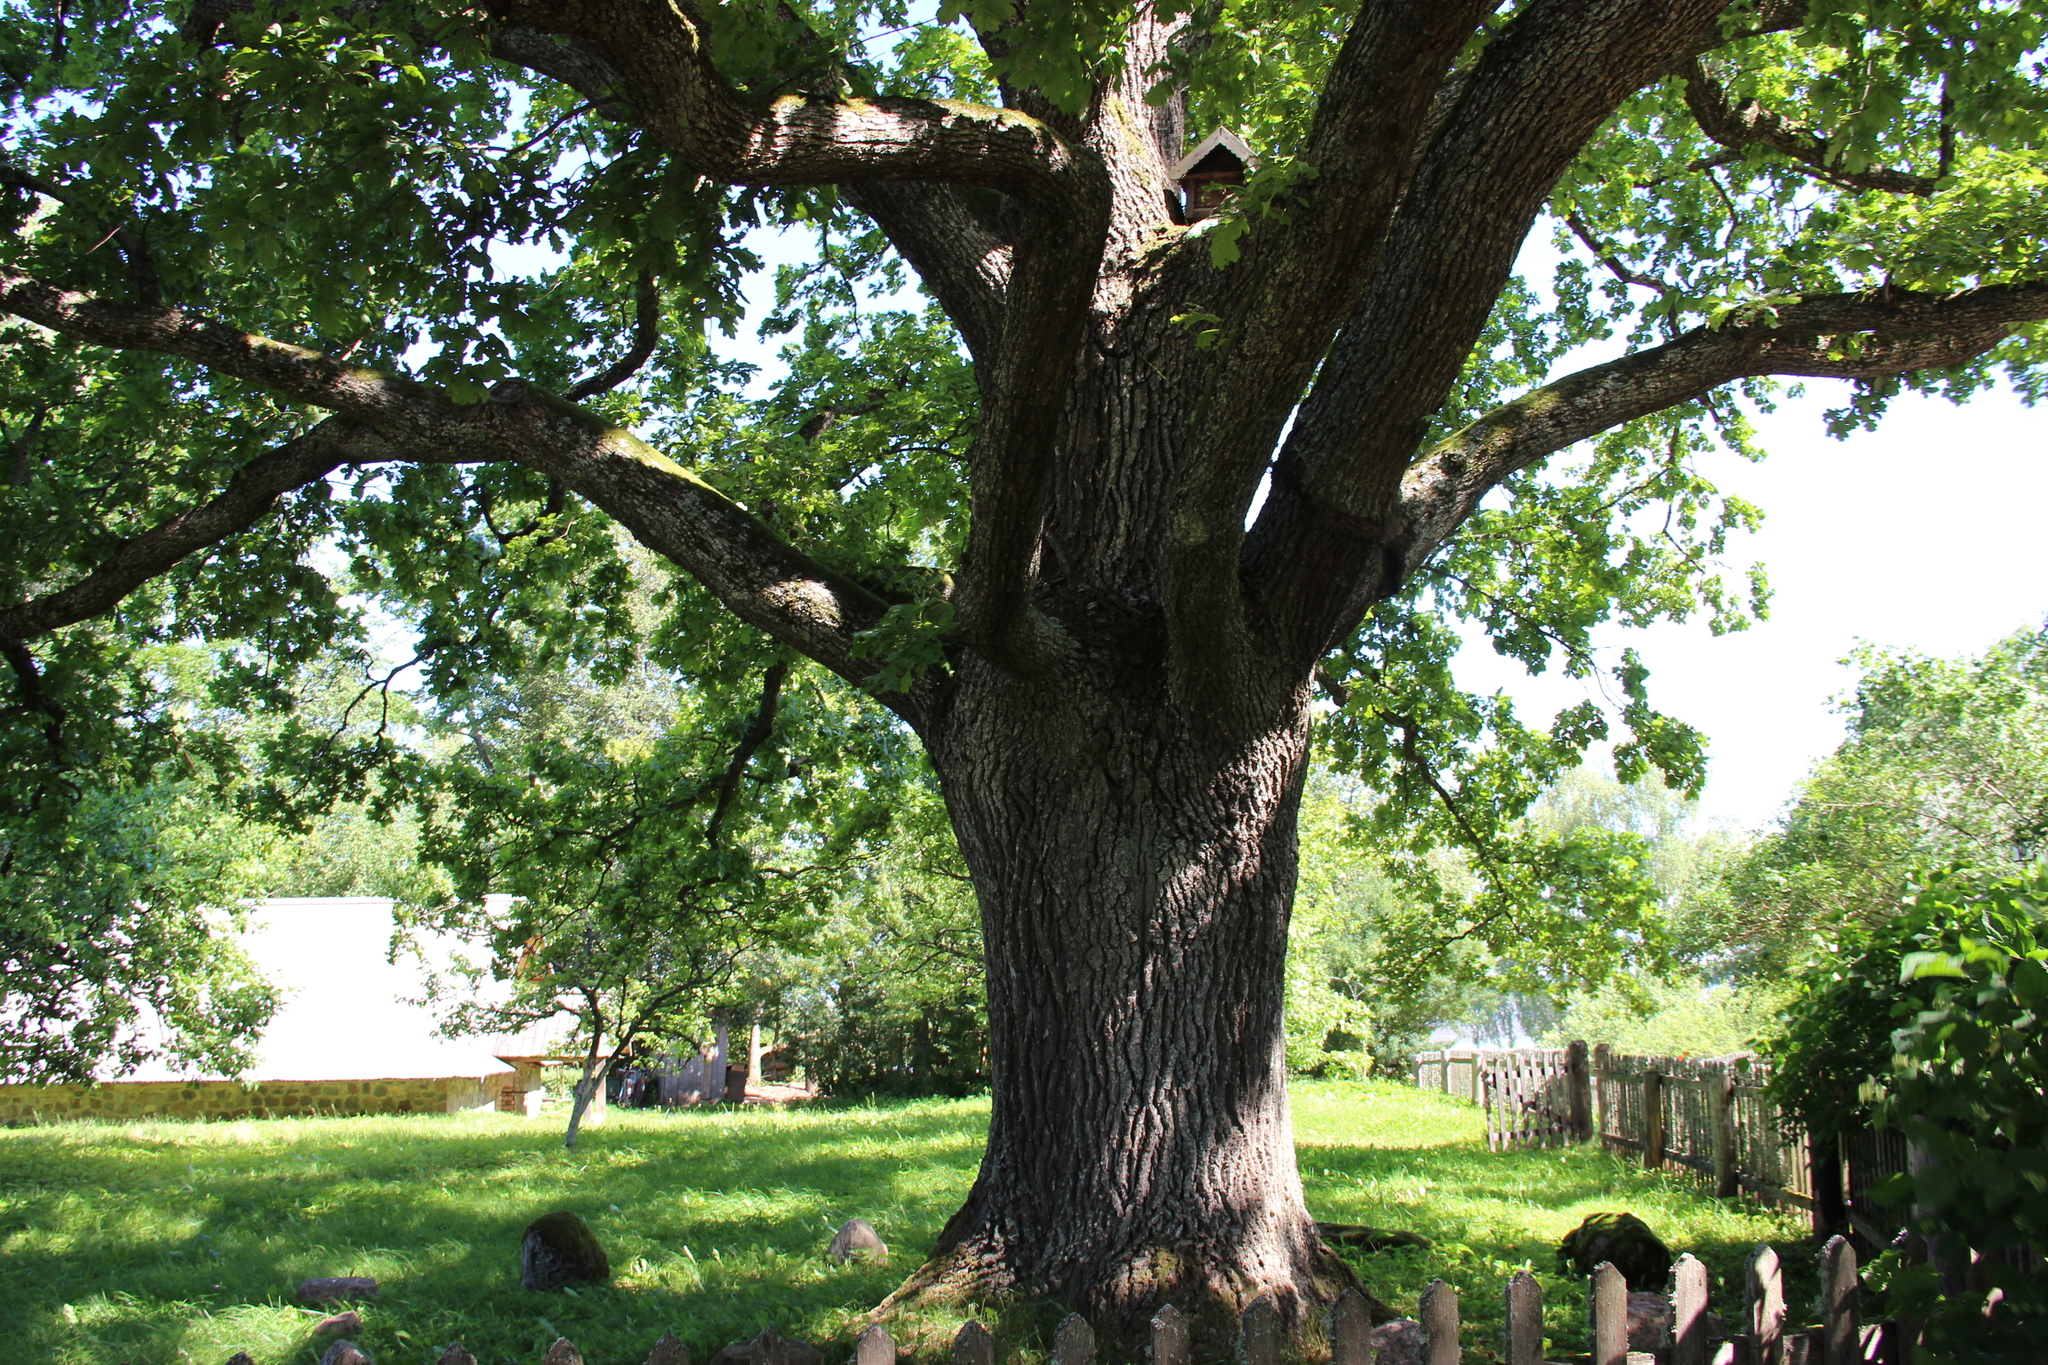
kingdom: Plantae
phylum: Tracheophyta
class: Magnoliopsida
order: Fagales
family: Fagaceae
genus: Quercus
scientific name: Quercus robur
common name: Pedunculate oak
